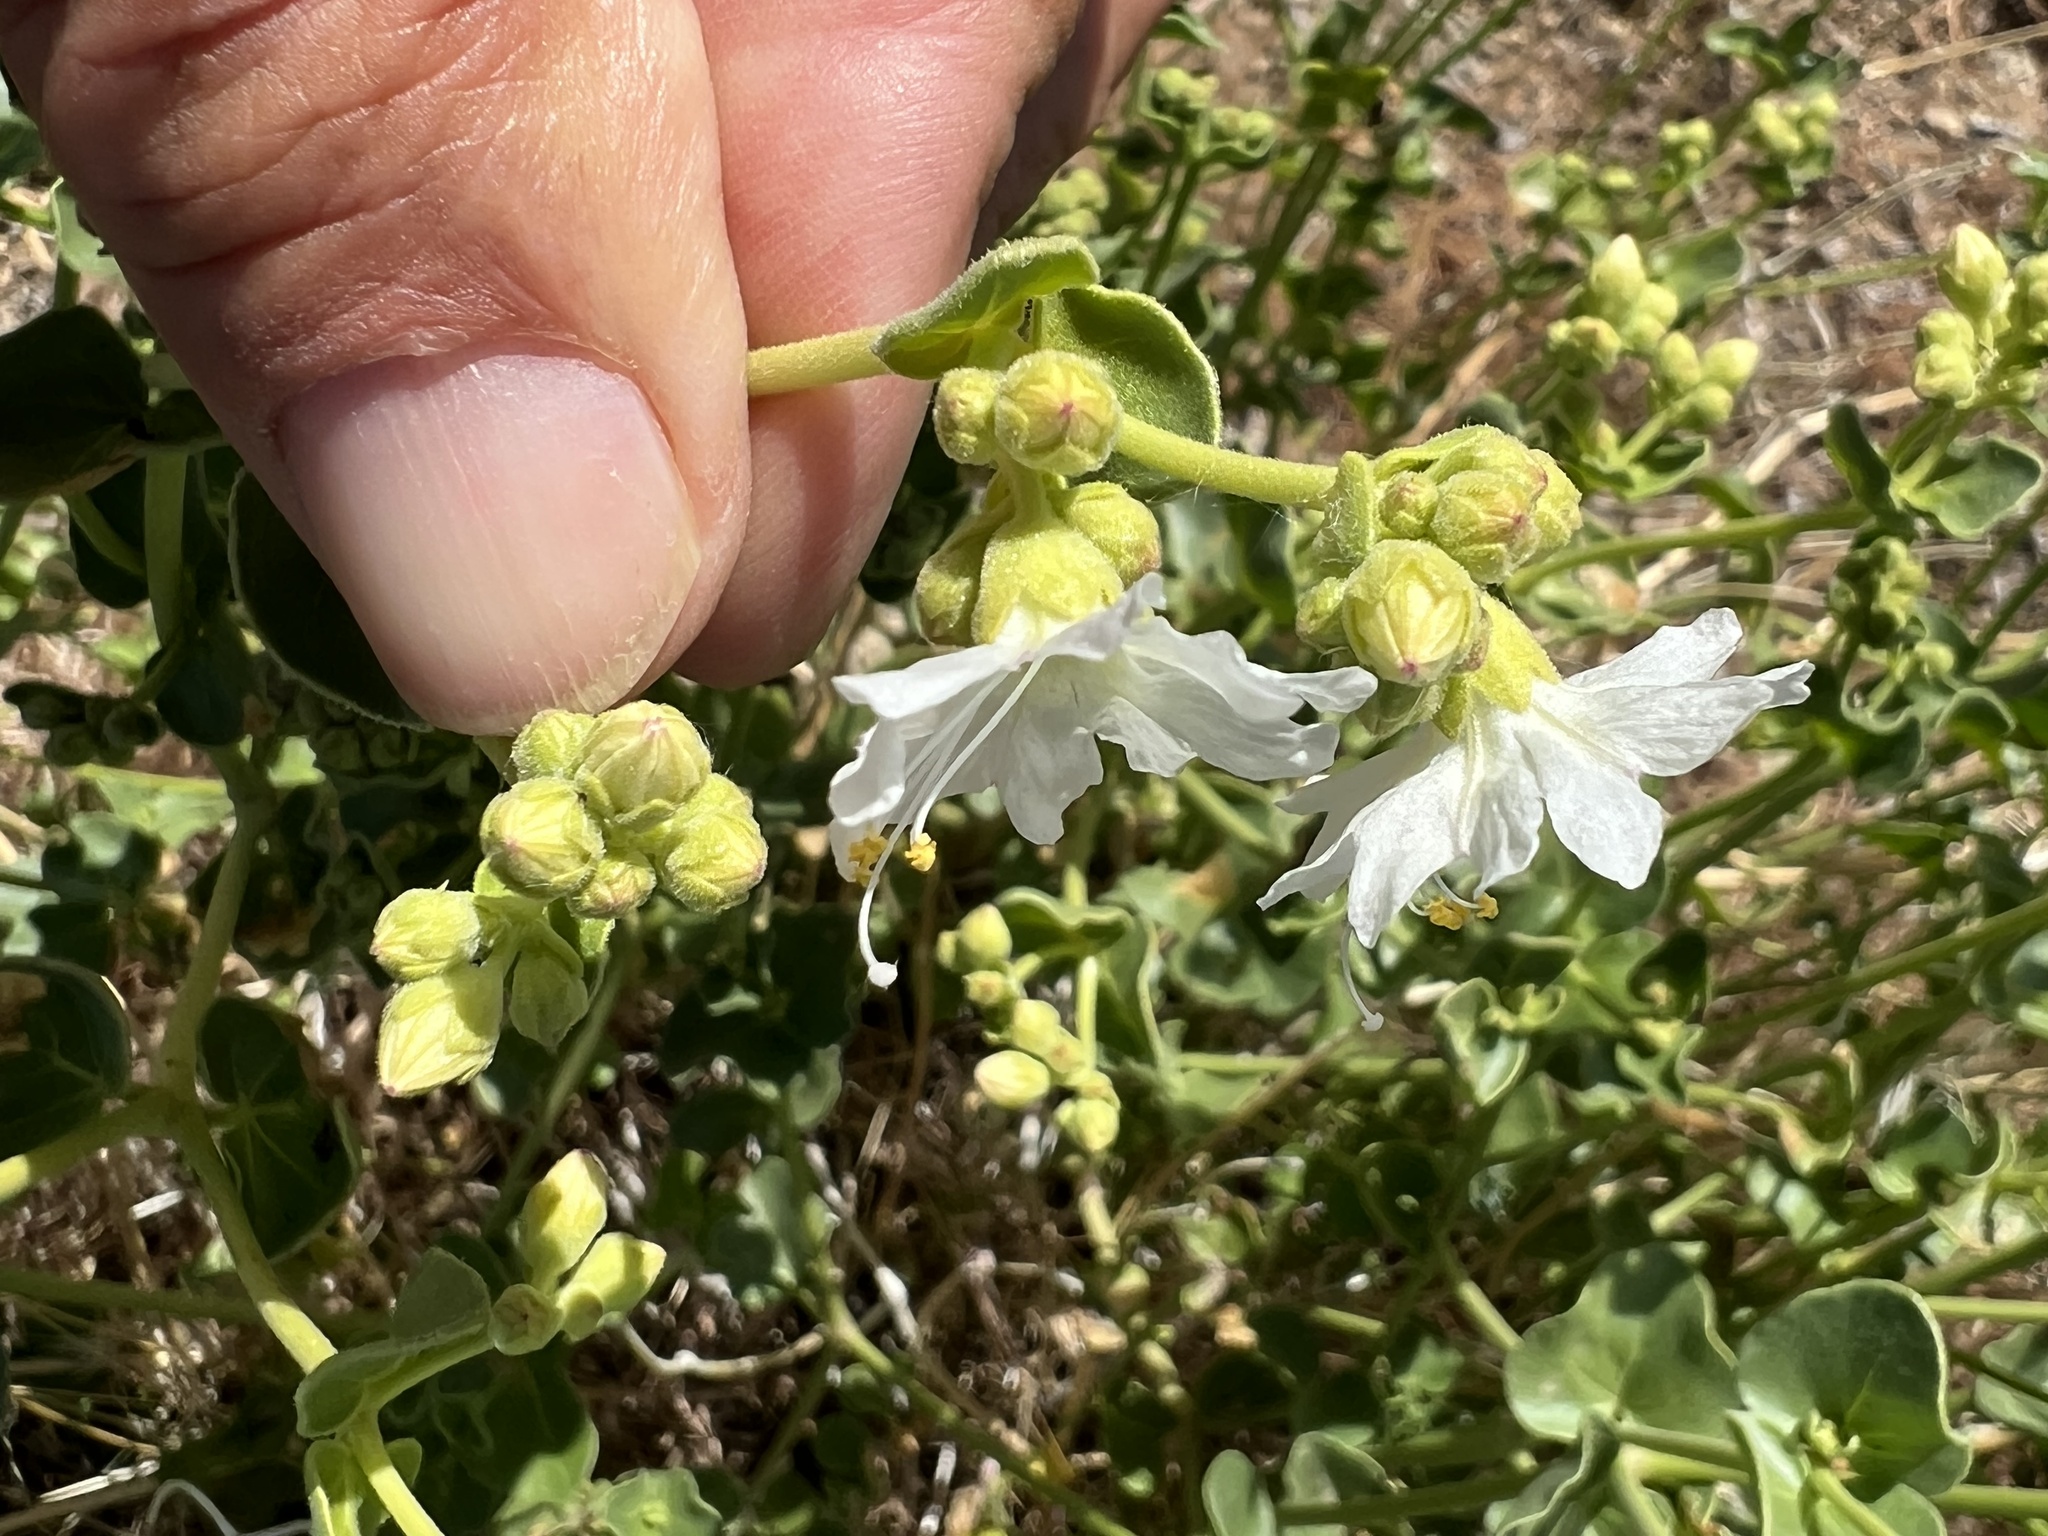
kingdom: Plantae
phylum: Tracheophyta
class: Magnoliopsida
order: Caryophyllales
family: Nyctaginaceae
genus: Mirabilis
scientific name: Mirabilis laevis
